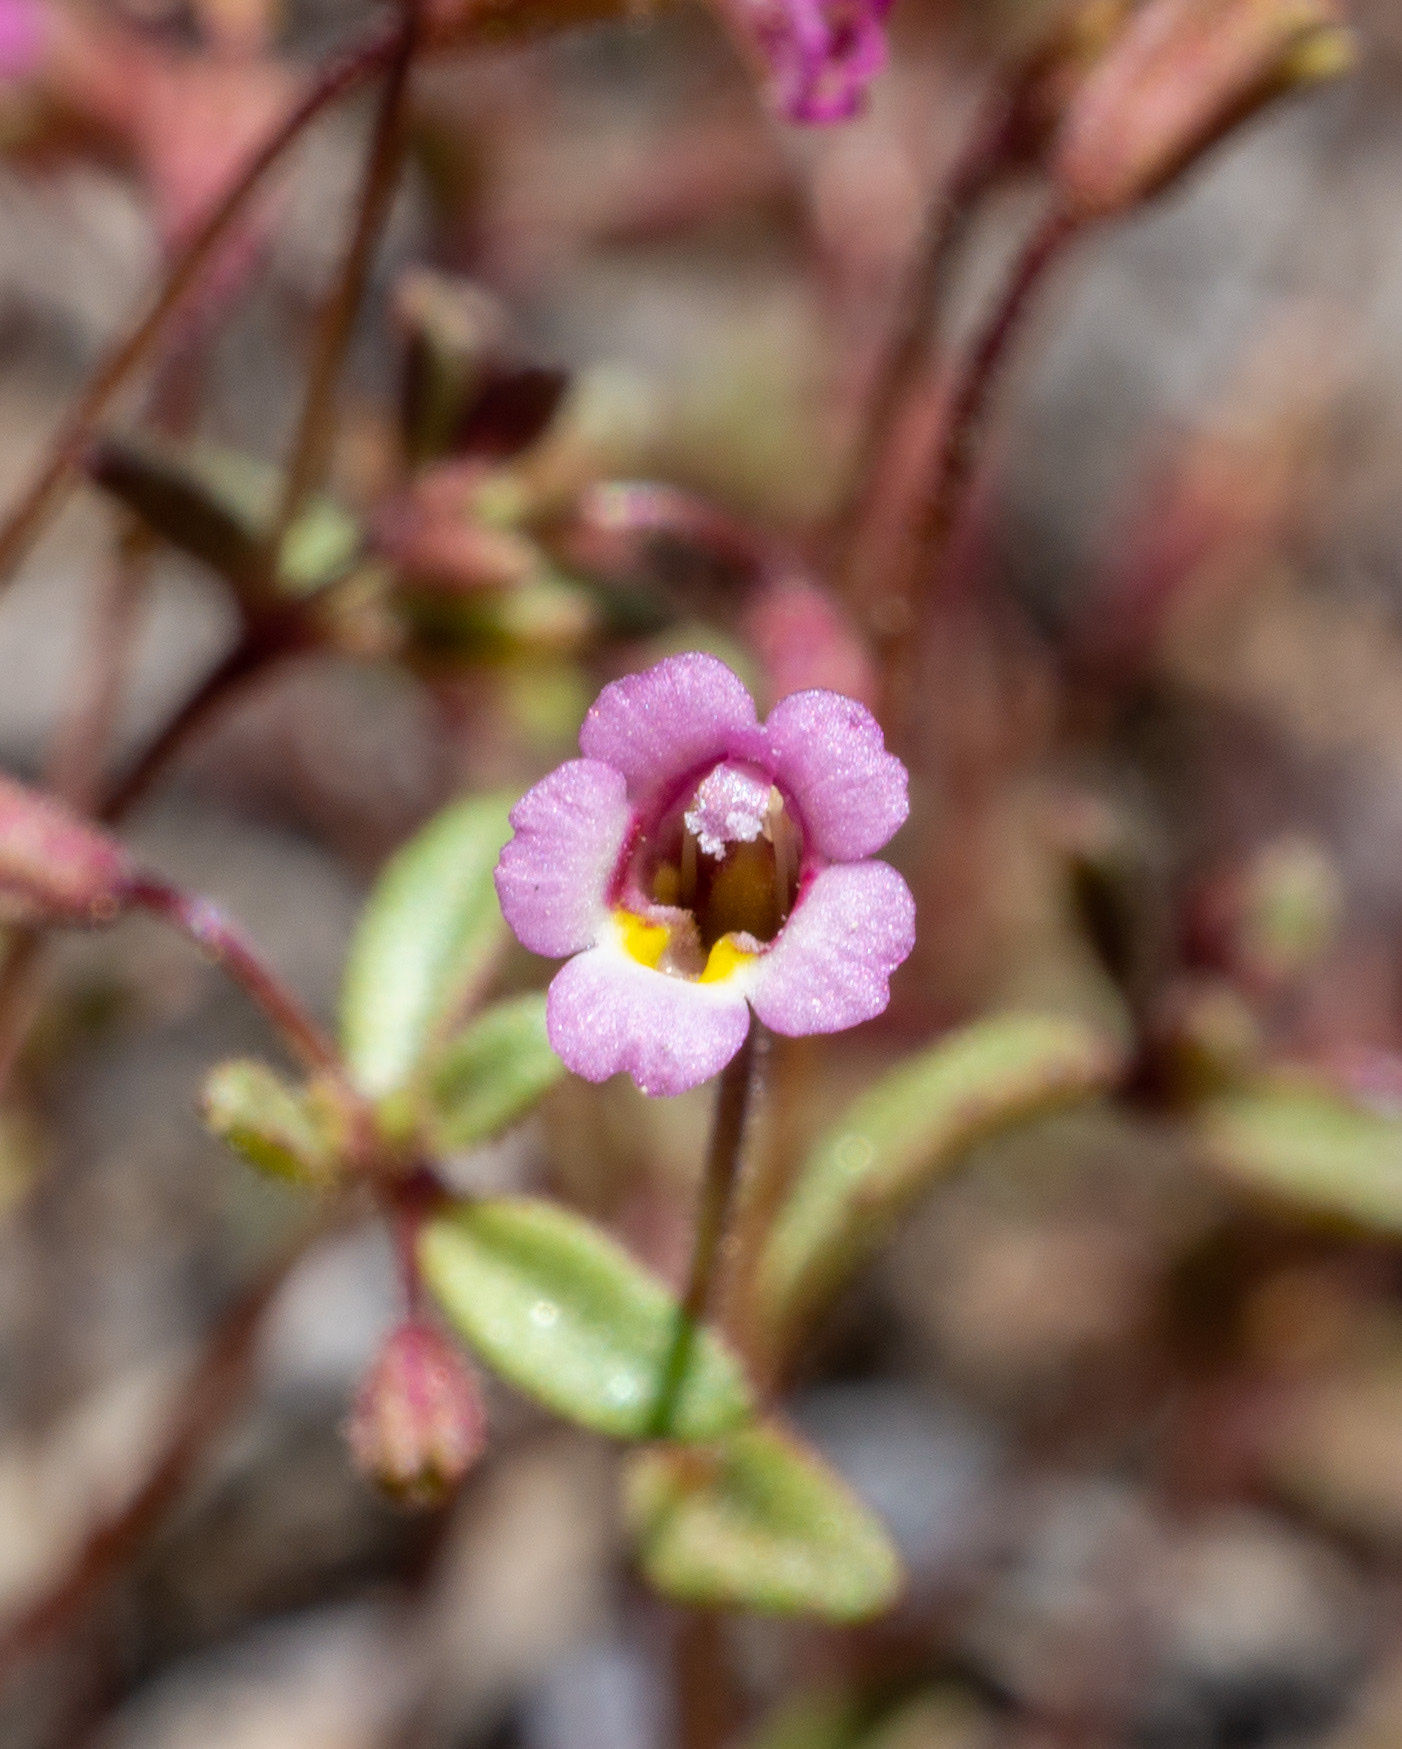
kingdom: Plantae
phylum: Tracheophyta
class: Magnoliopsida
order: Lamiales
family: Phrymaceae
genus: Erythranthe
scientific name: Erythranthe exigua
